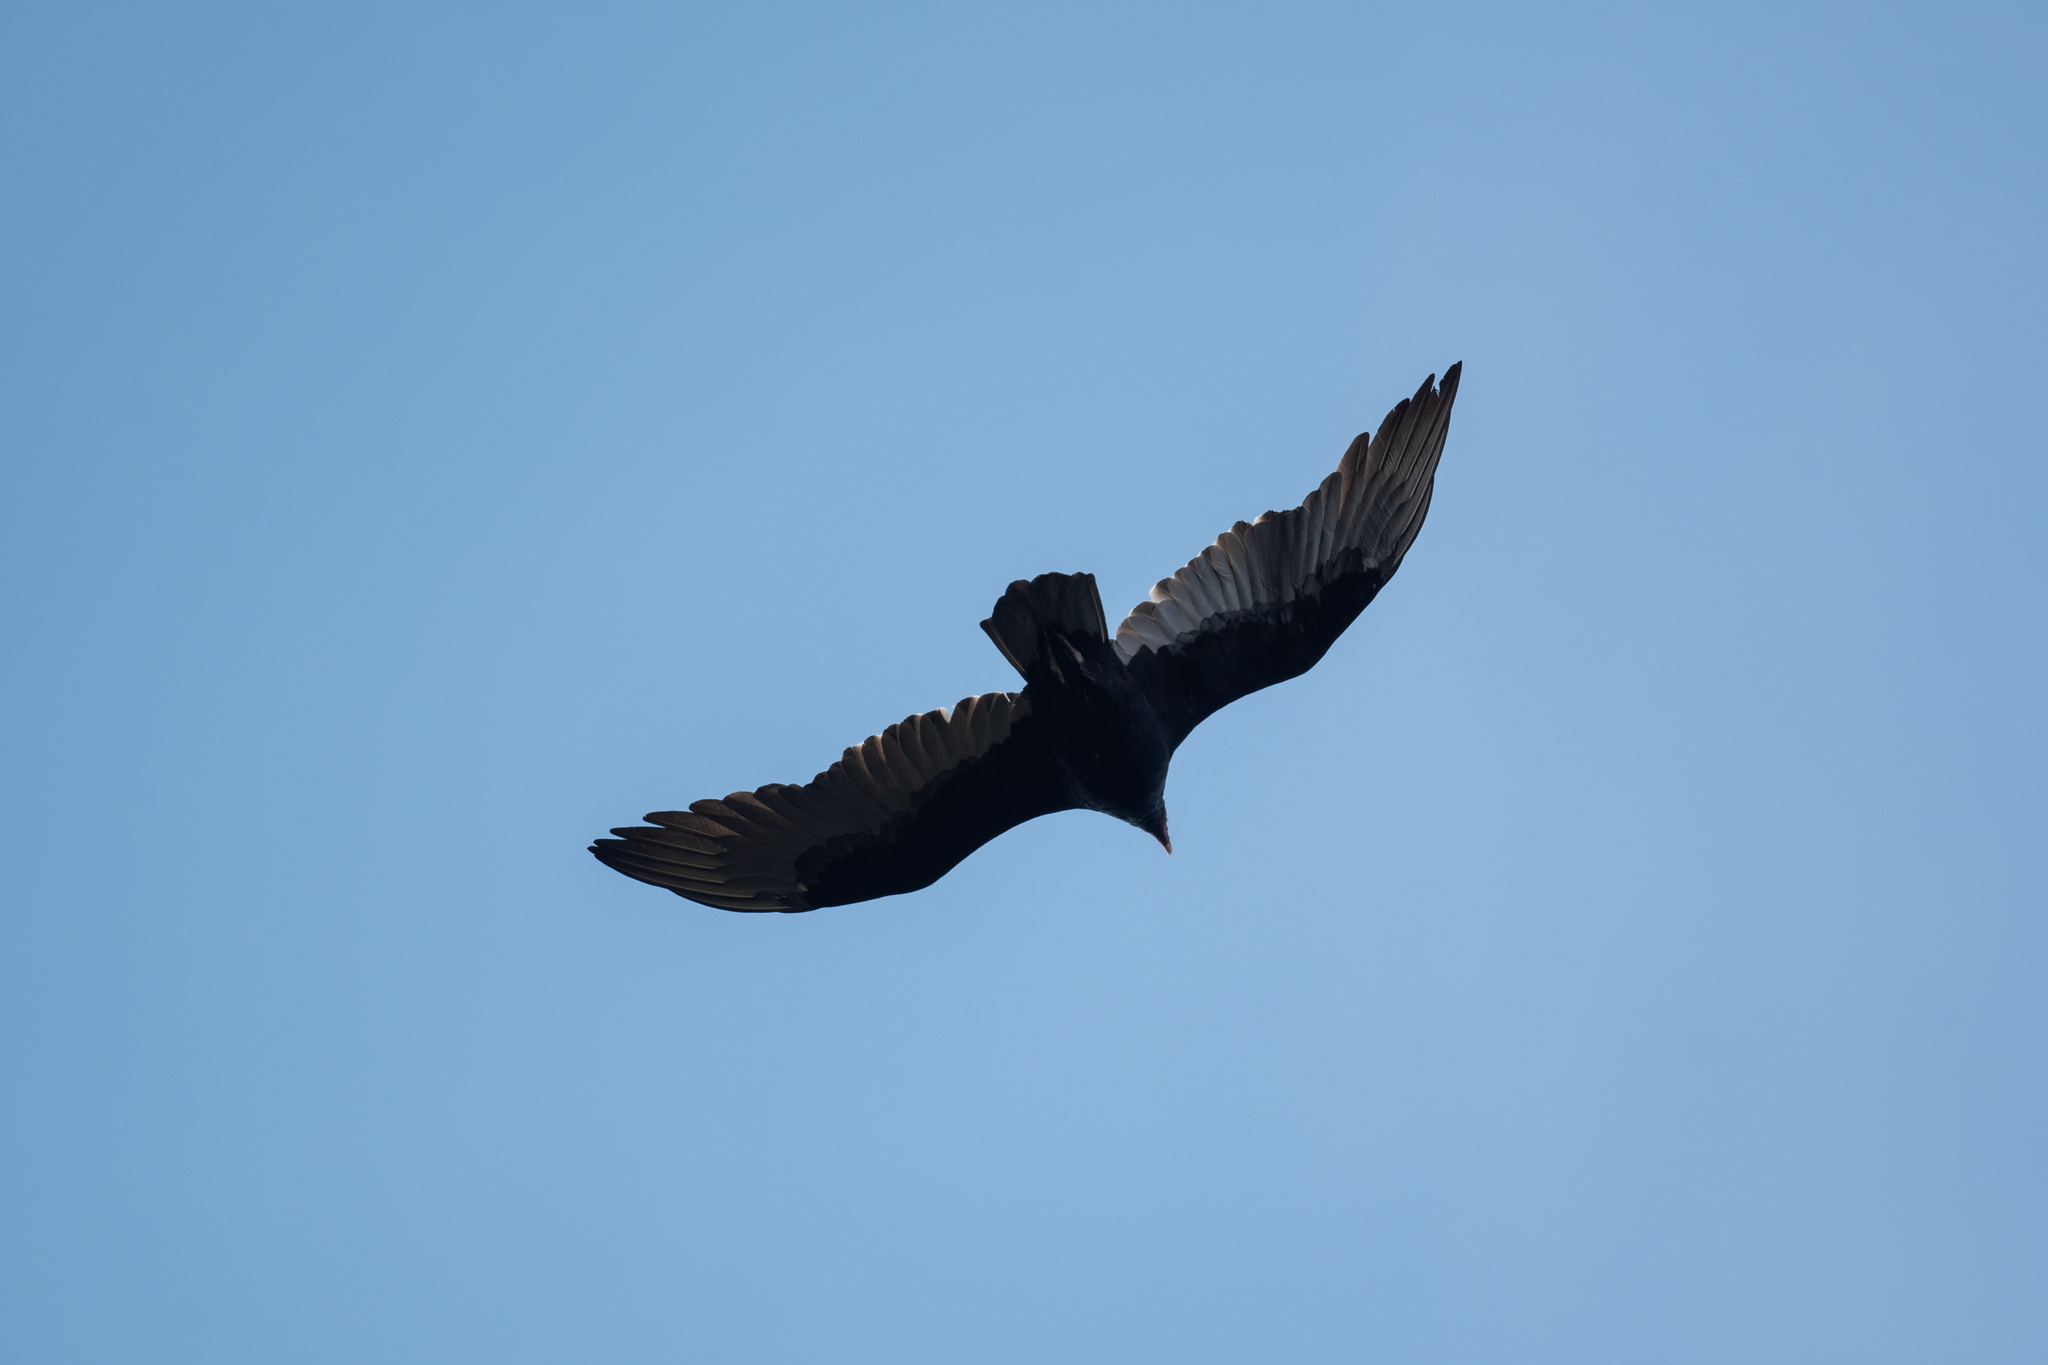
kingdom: Animalia
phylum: Chordata
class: Aves
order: Accipitriformes
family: Cathartidae
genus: Cathartes
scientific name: Cathartes aura
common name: Turkey vulture
